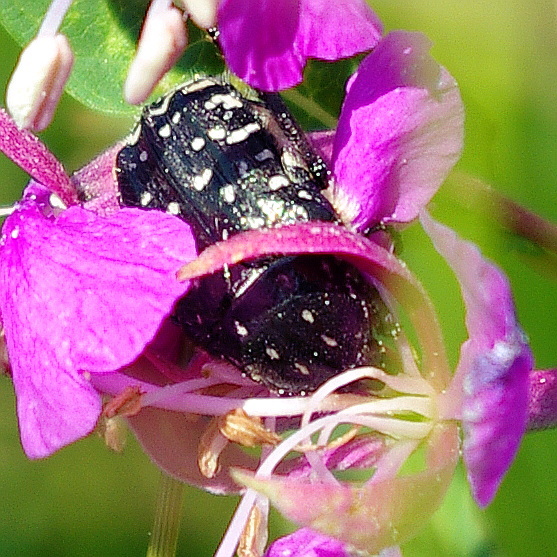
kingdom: Animalia
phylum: Arthropoda
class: Insecta
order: Coleoptera
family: Scarabaeidae
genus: Oxythyrea
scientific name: Oxythyrea funesta
